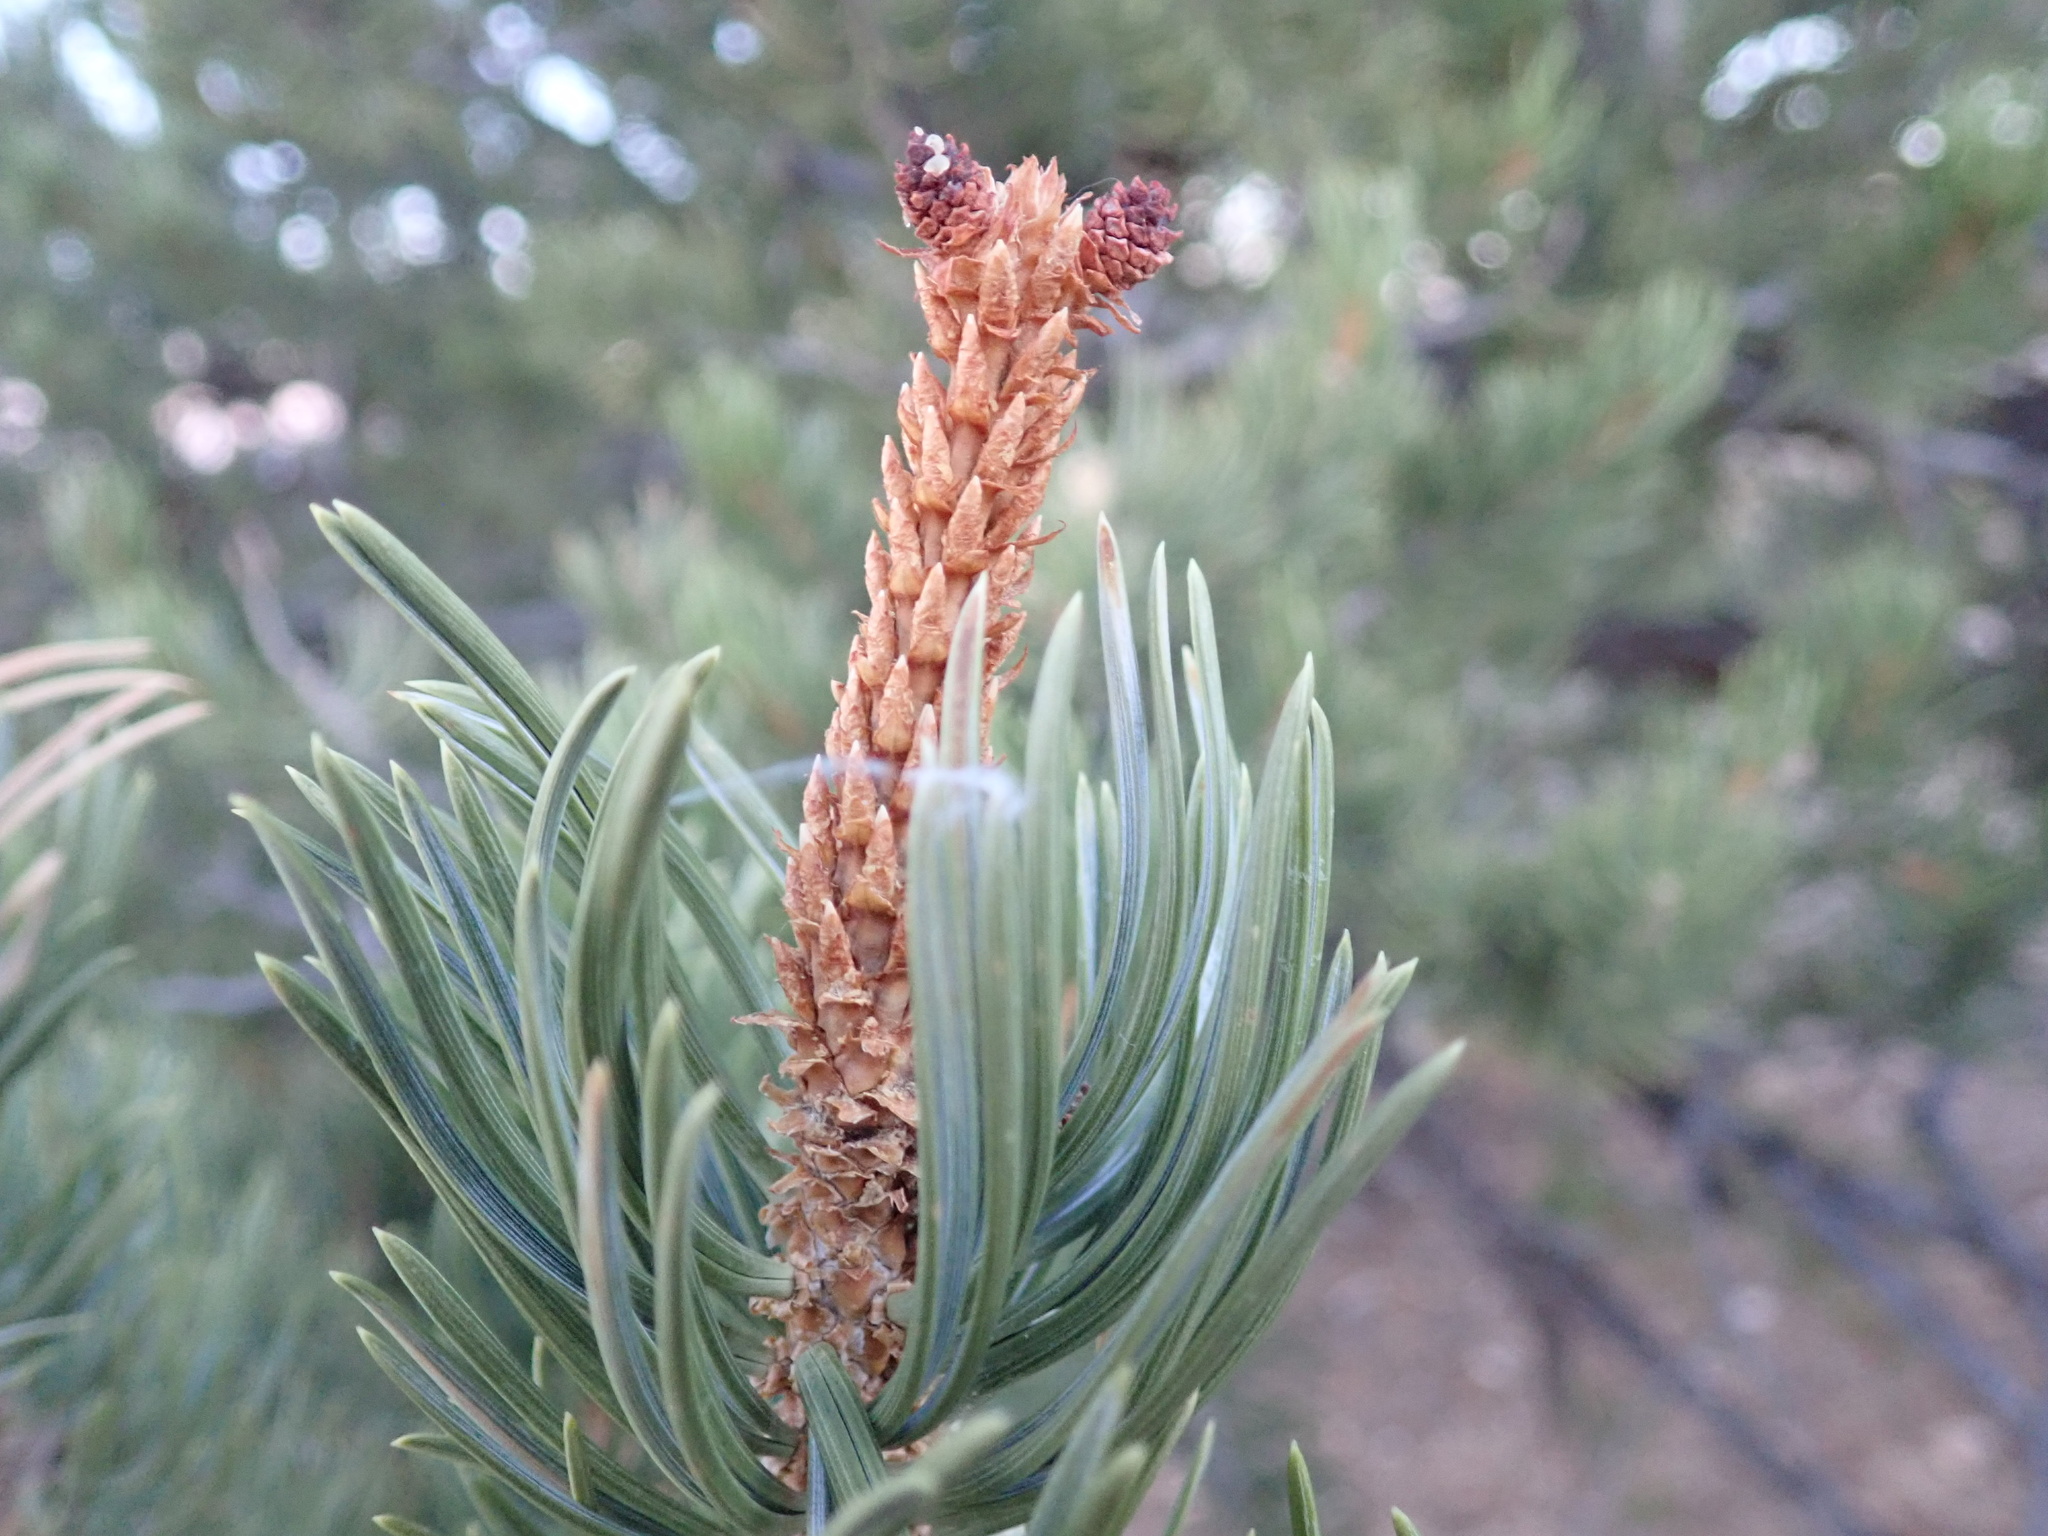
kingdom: Plantae
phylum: Tracheophyta
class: Pinopsida
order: Pinales
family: Pinaceae
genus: Pinus
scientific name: Pinus edulis
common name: Colorado pinyon
